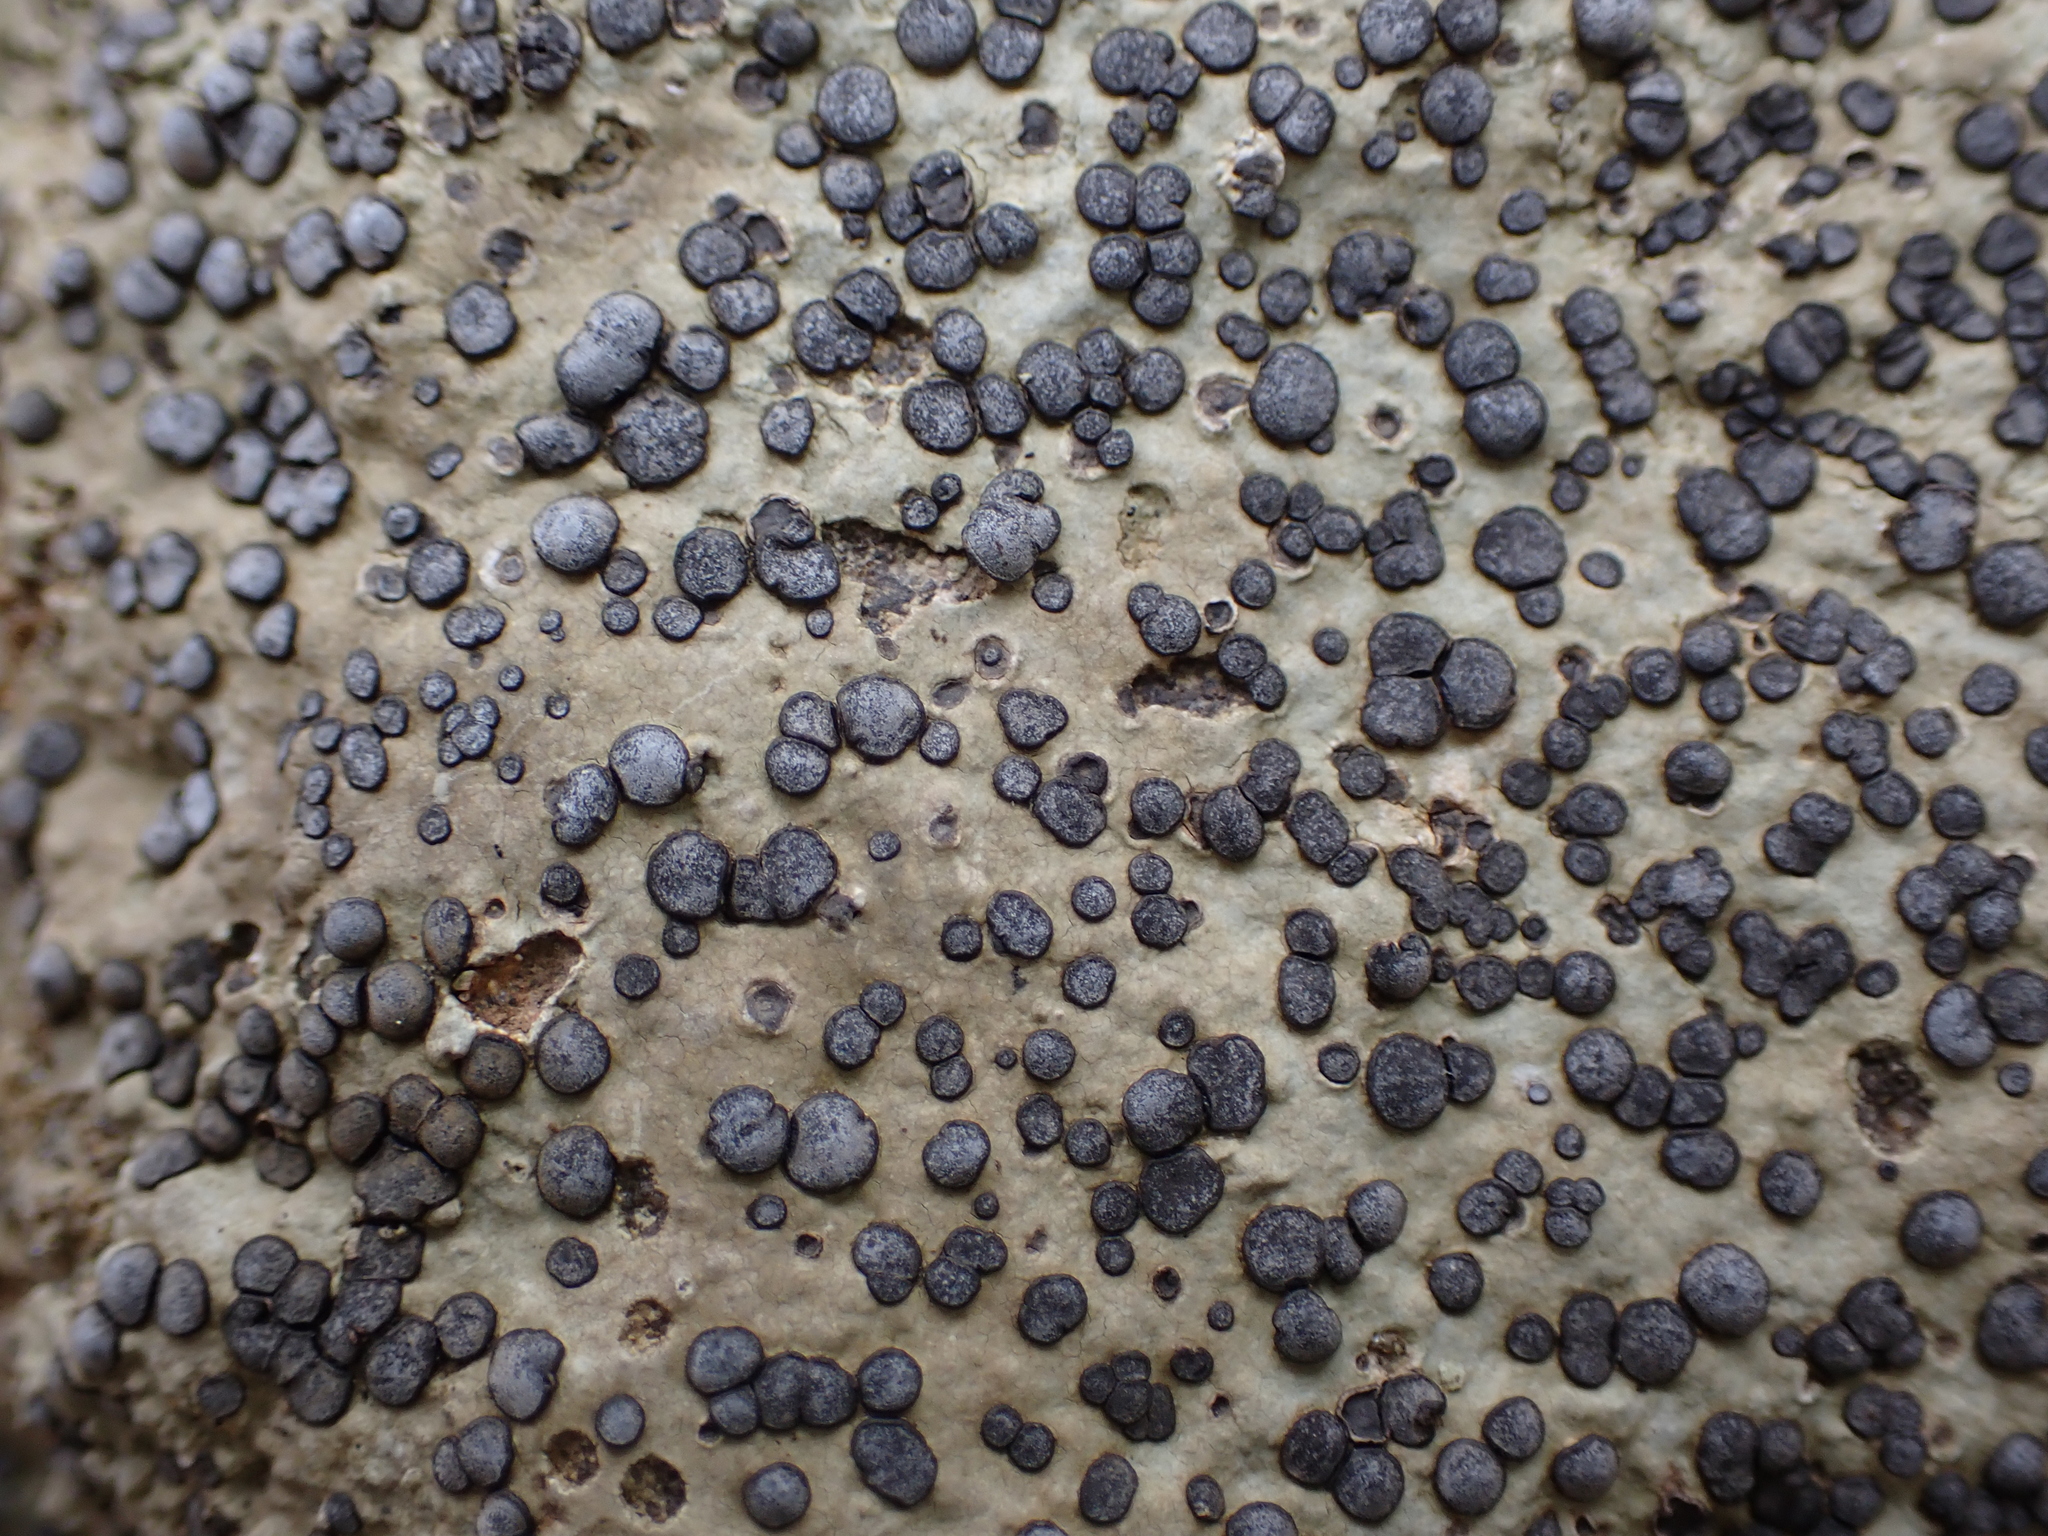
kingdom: Fungi
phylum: Ascomycota
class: Lecanoromycetes
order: Lecideales
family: Lecideaceae
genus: Porpidia
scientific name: Porpidia albocaerulescens
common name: Smokey-eyed boulder lichen
